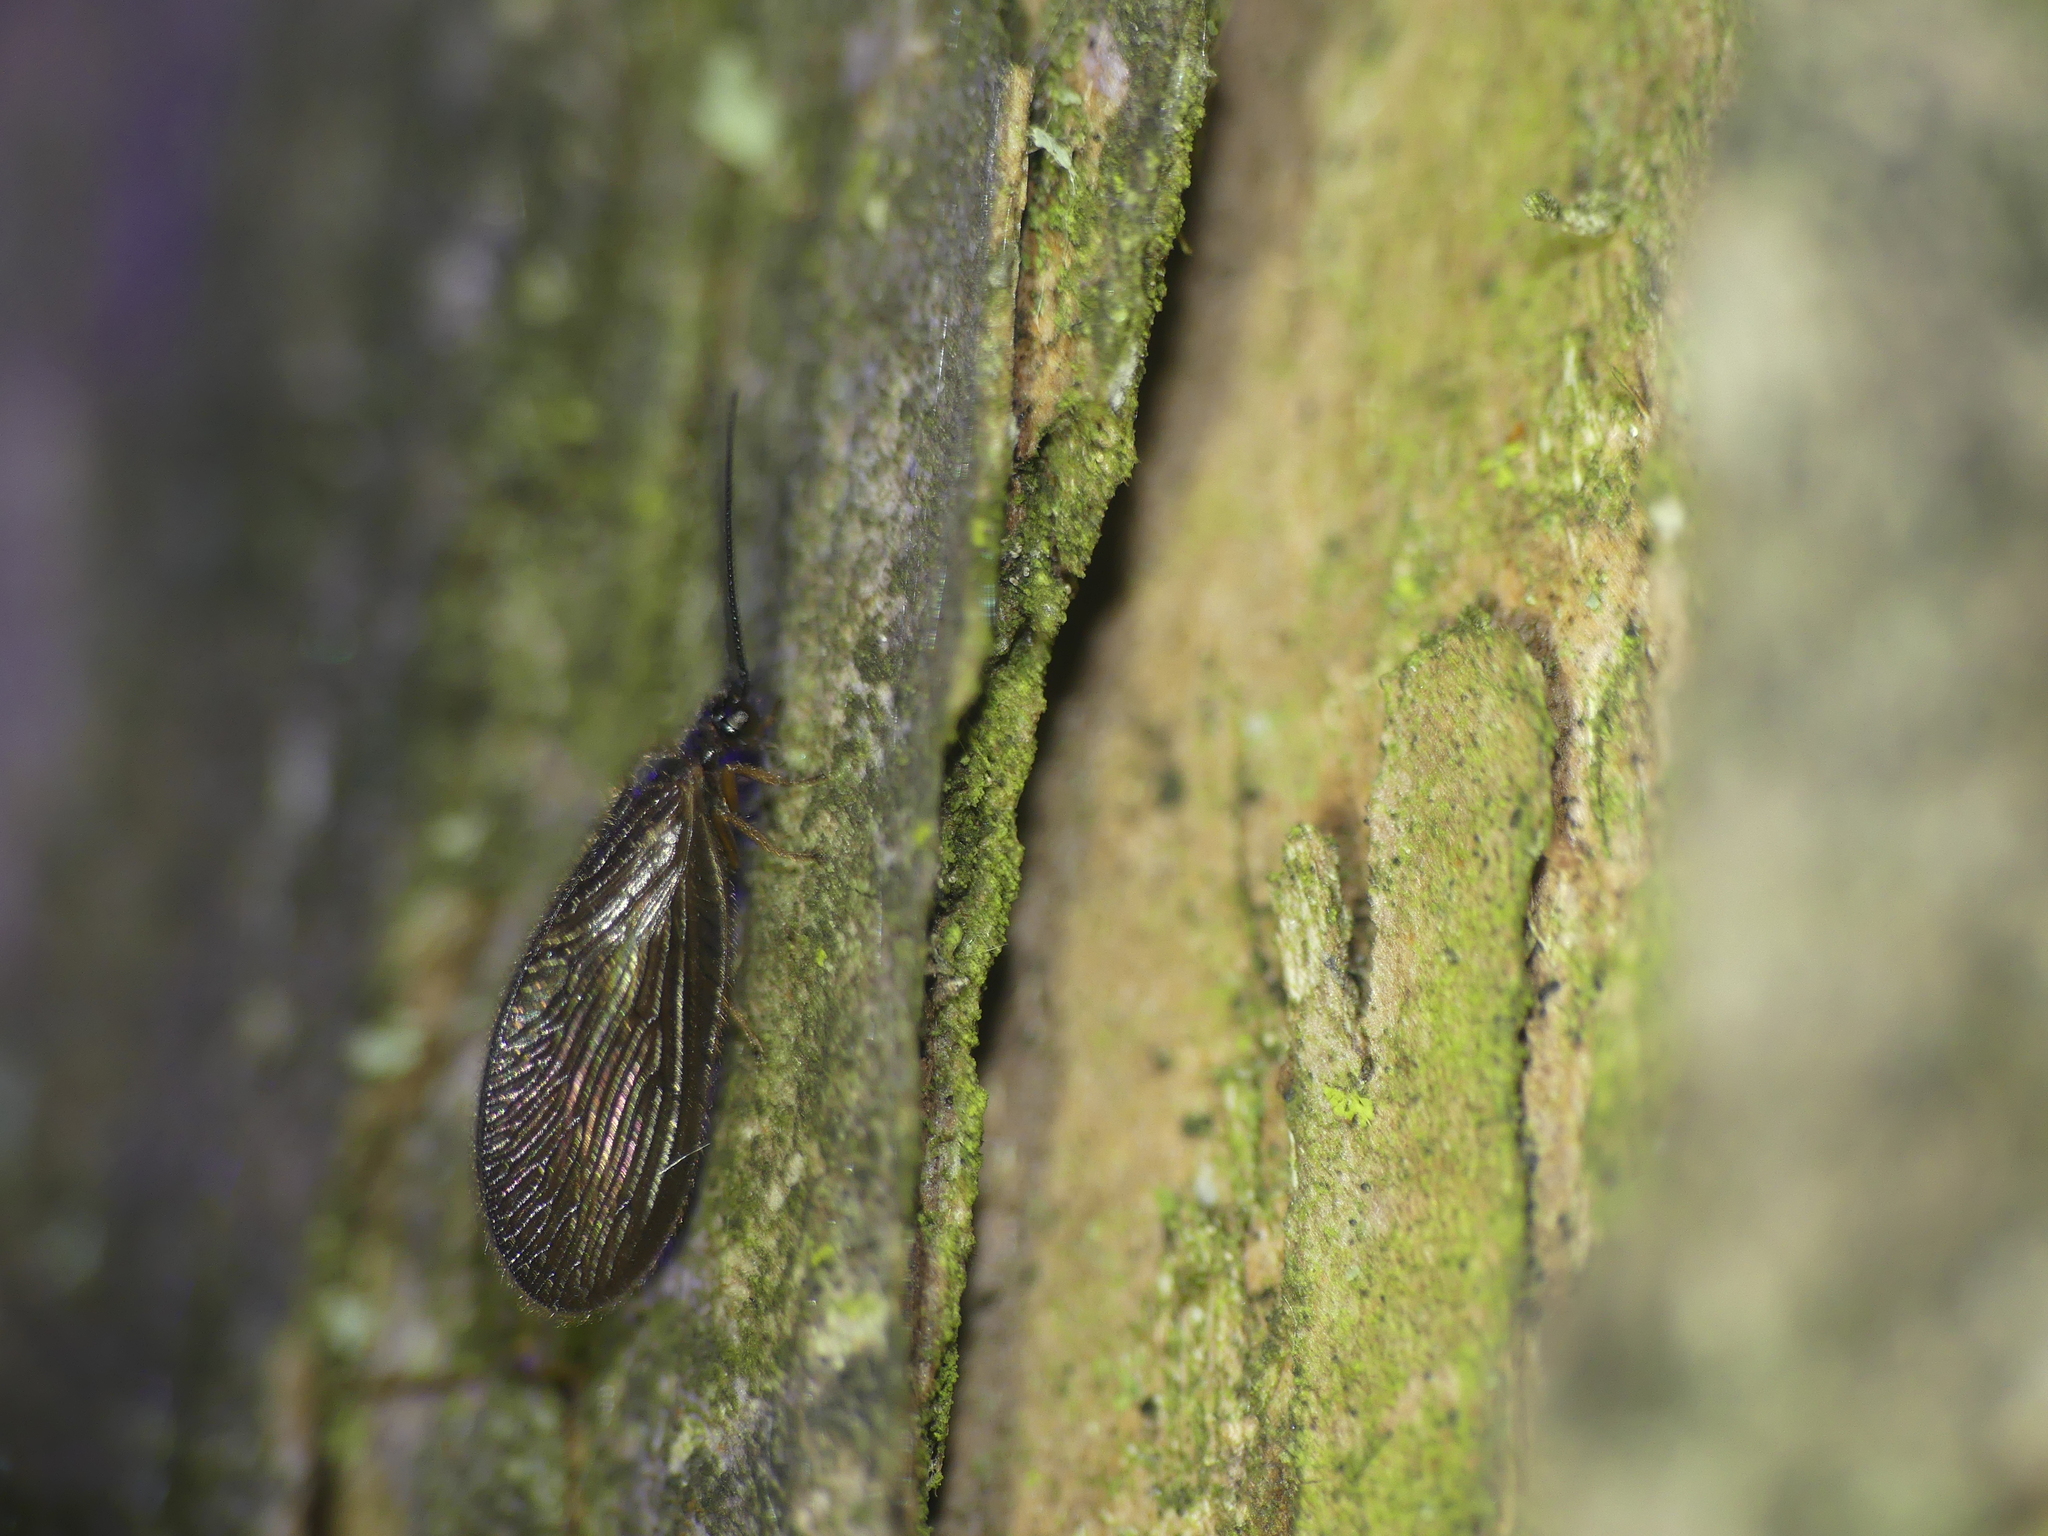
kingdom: Animalia
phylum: Arthropoda
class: Insecta
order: Neuroptera
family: Sisyridae
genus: Sisyra
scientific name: Sisyra nigra
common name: Black spongillafly
